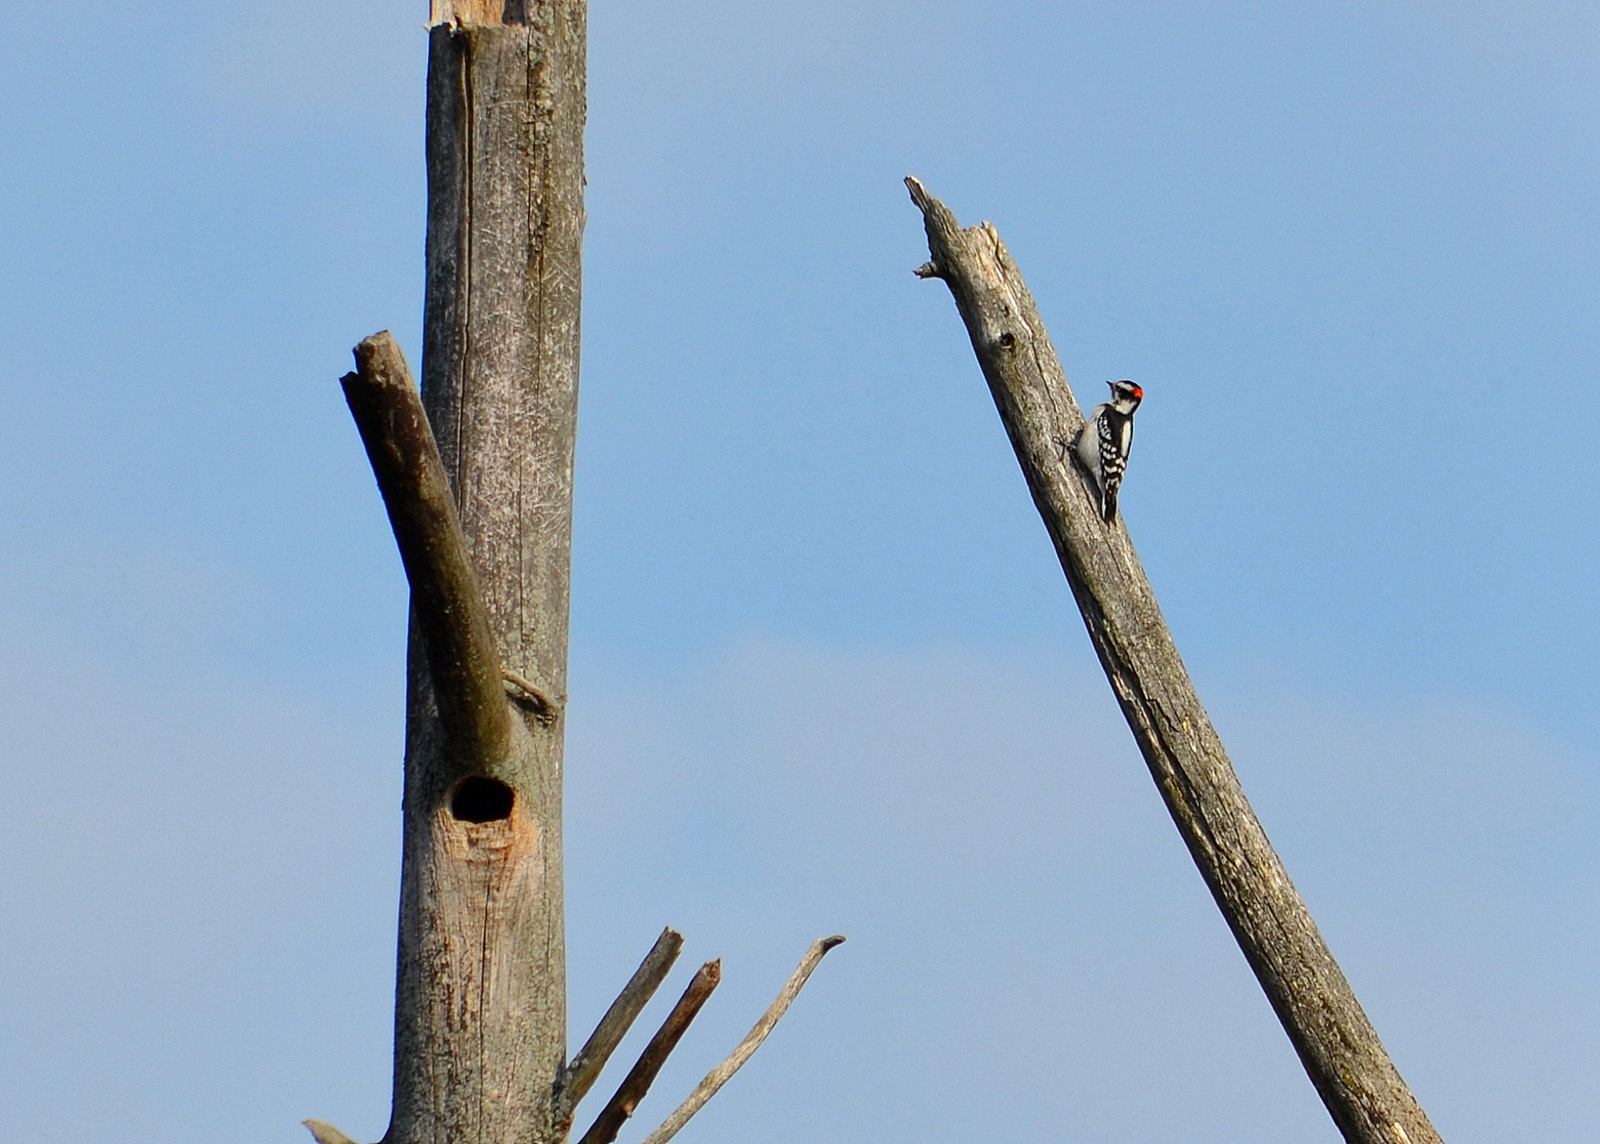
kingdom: Animalia
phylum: Chordata
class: Aves
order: Piciformes
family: Picidae
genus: Dryobates
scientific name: Dryobates pubescens
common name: Downy woodpecker
